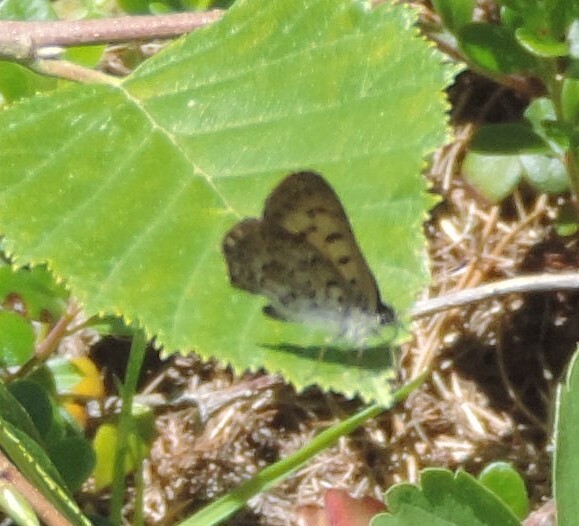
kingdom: Animalia
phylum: Arthropoda
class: Insecta
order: Lepidoptera
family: Lycaenidae
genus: Tharsalea
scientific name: Tharsalea mariposa
